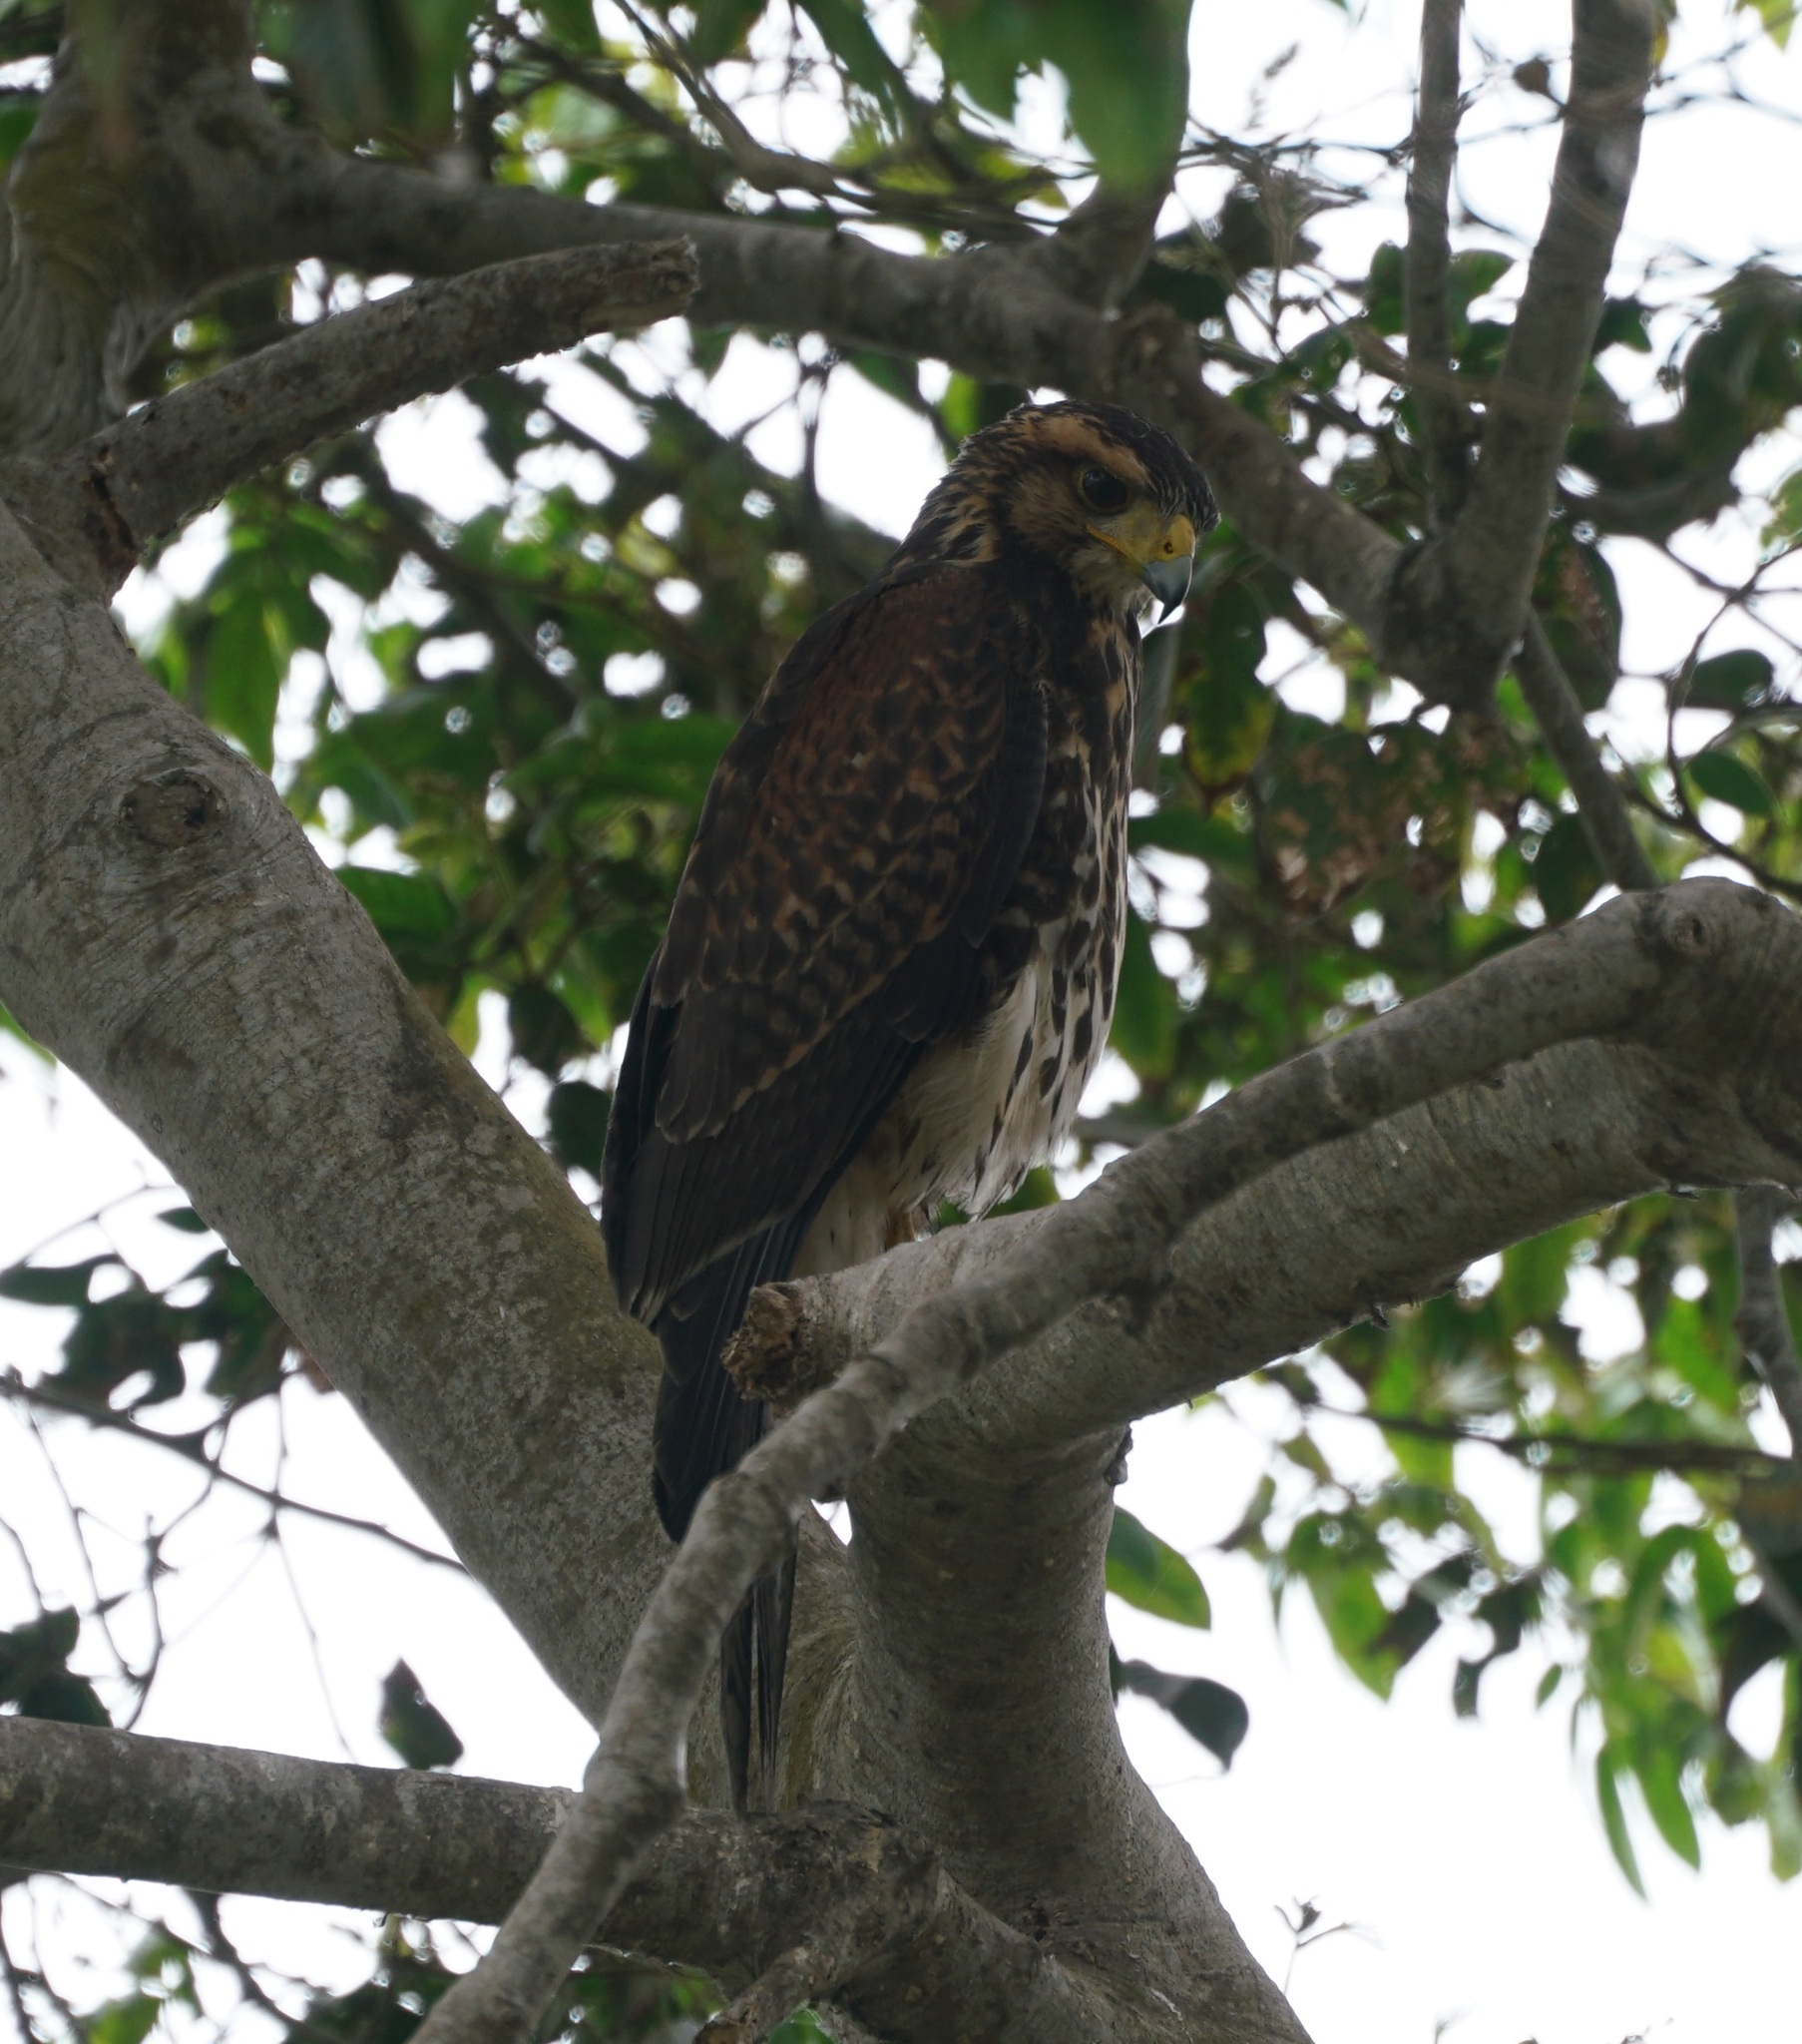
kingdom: Animalia
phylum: Chordata
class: Aves
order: Accipitriformes
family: Accipitridae
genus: Parabuteo
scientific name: Parabuteo unicinctus
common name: Harris's hawk
